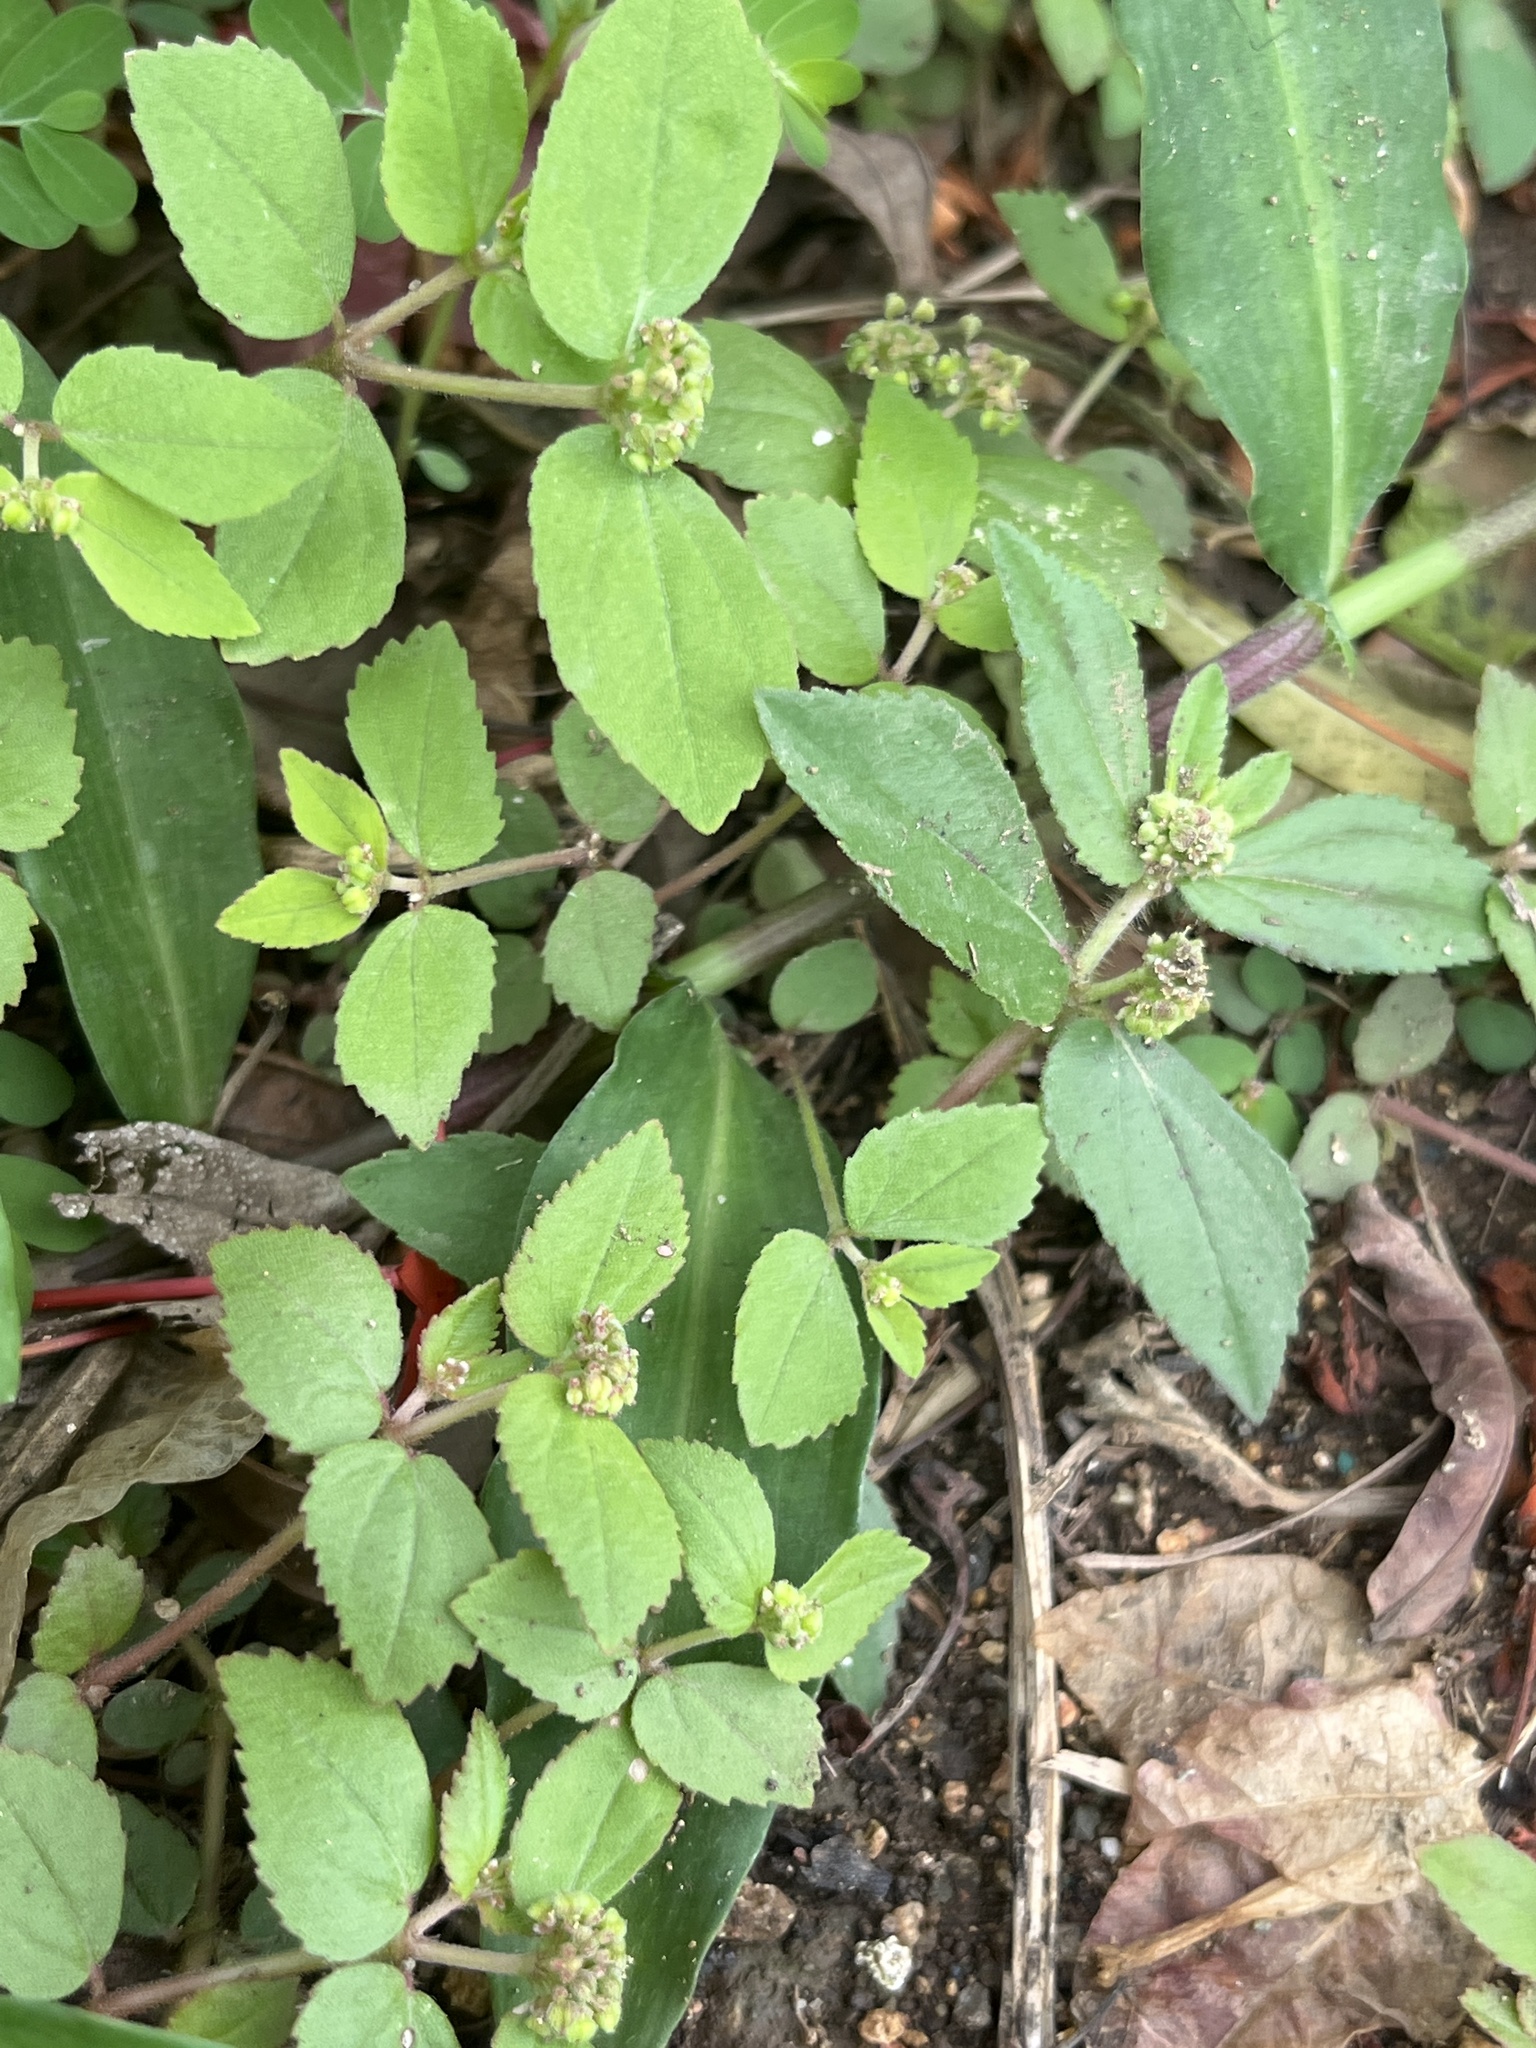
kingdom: Plantae
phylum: Tracheophyta
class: Magnoliopsida
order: Malpighiales
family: Euphorbiaceae
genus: Euphorbia
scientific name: Euphorbia ophthalmica
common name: Florida hammock sandmat
